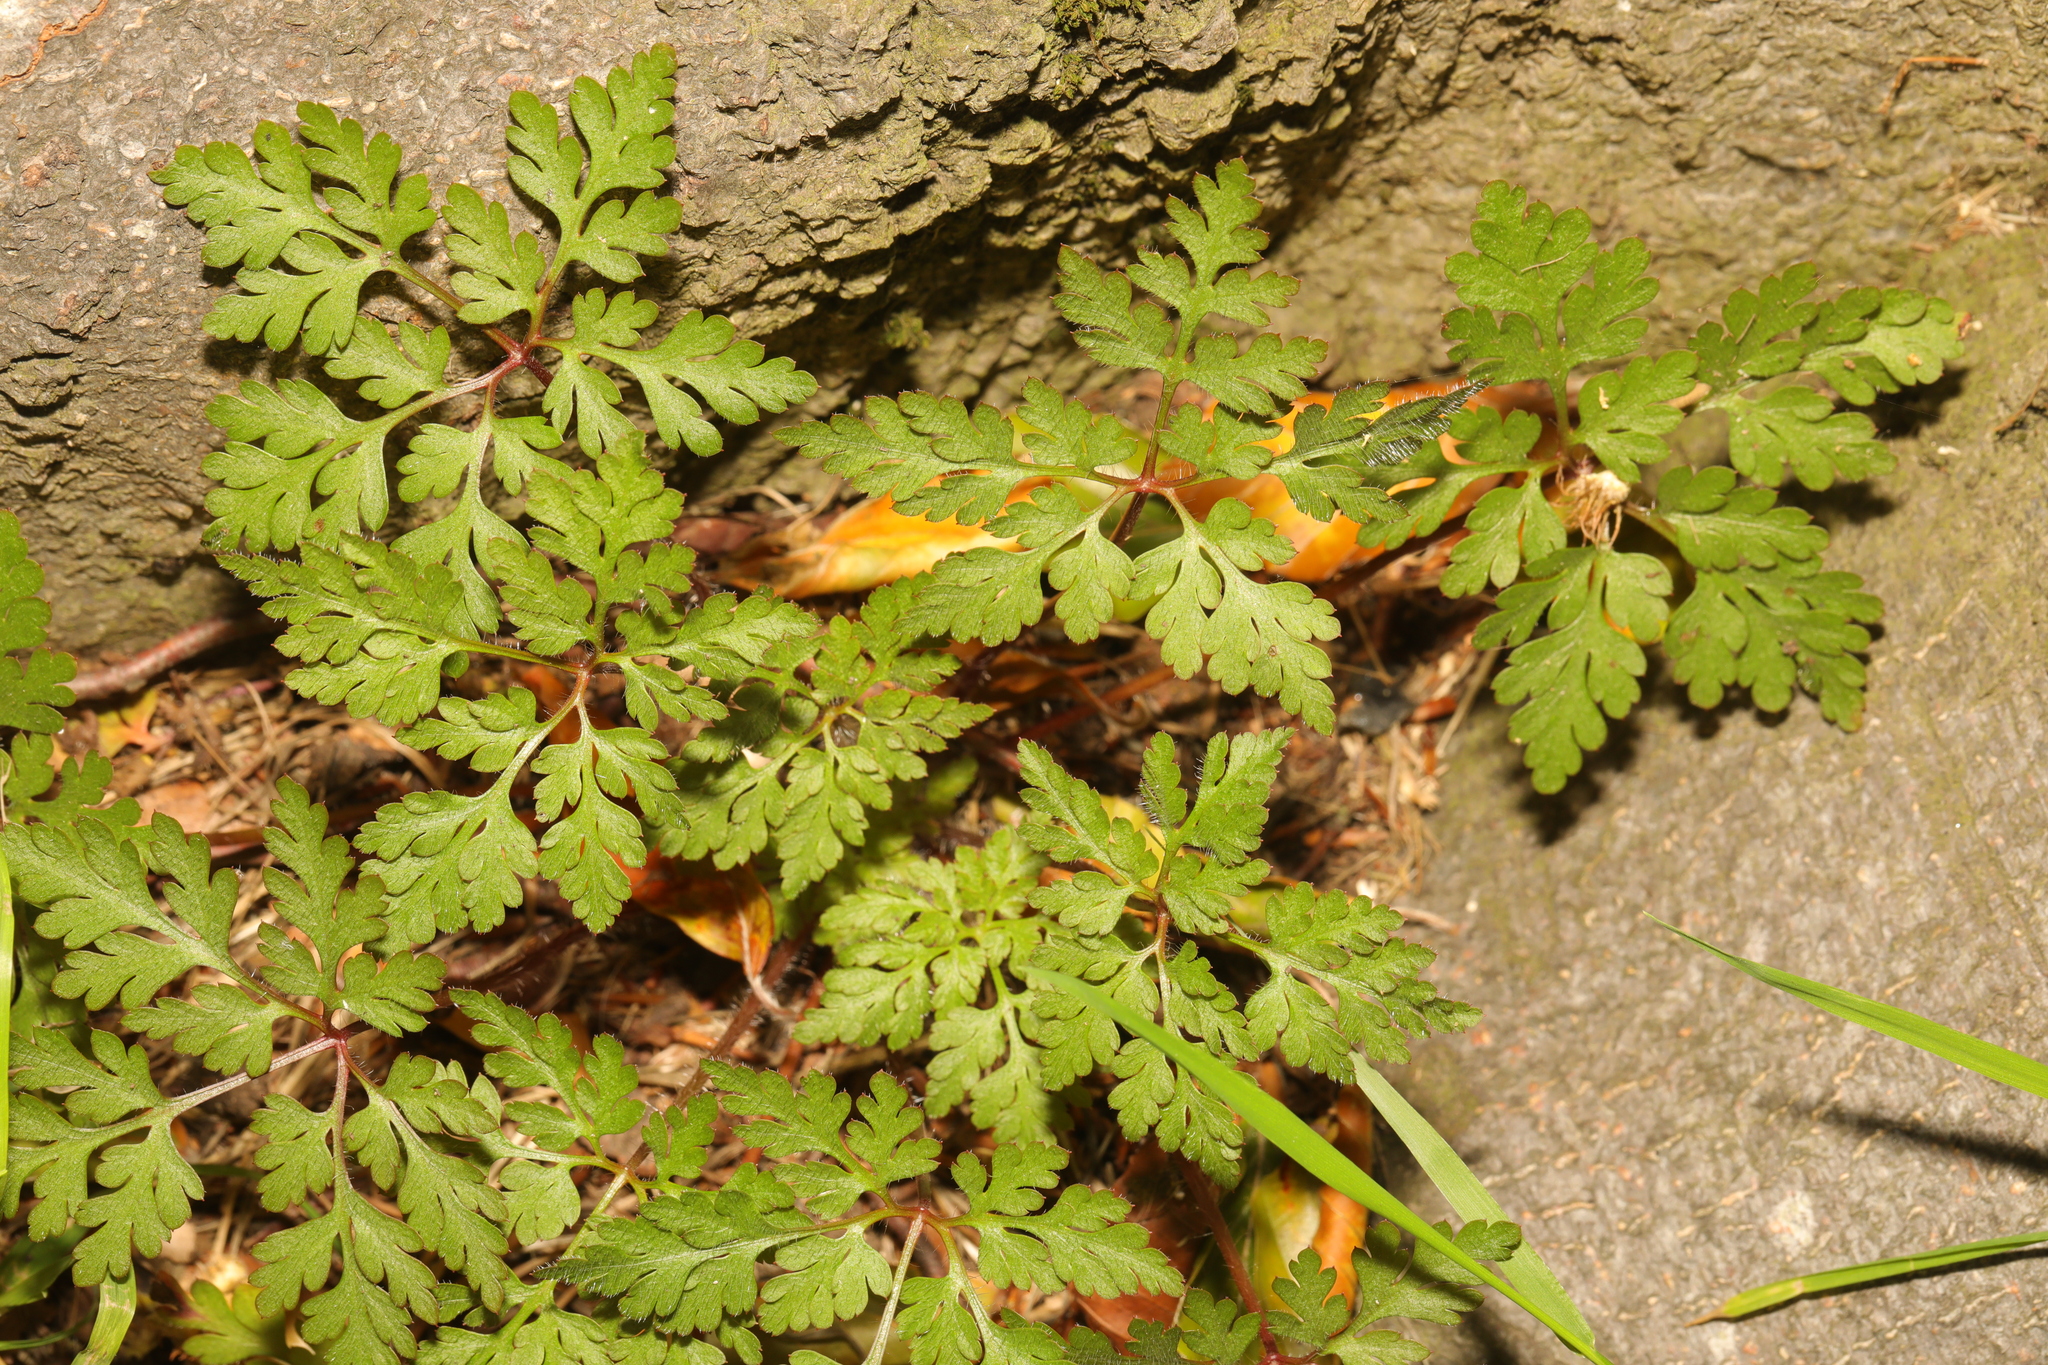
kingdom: Plantae
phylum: Tracheophyta
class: Magnoliopsida
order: Geraniales
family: Geraniaceae
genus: Geranium
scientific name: Geranium robertianum
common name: Herb-robert
